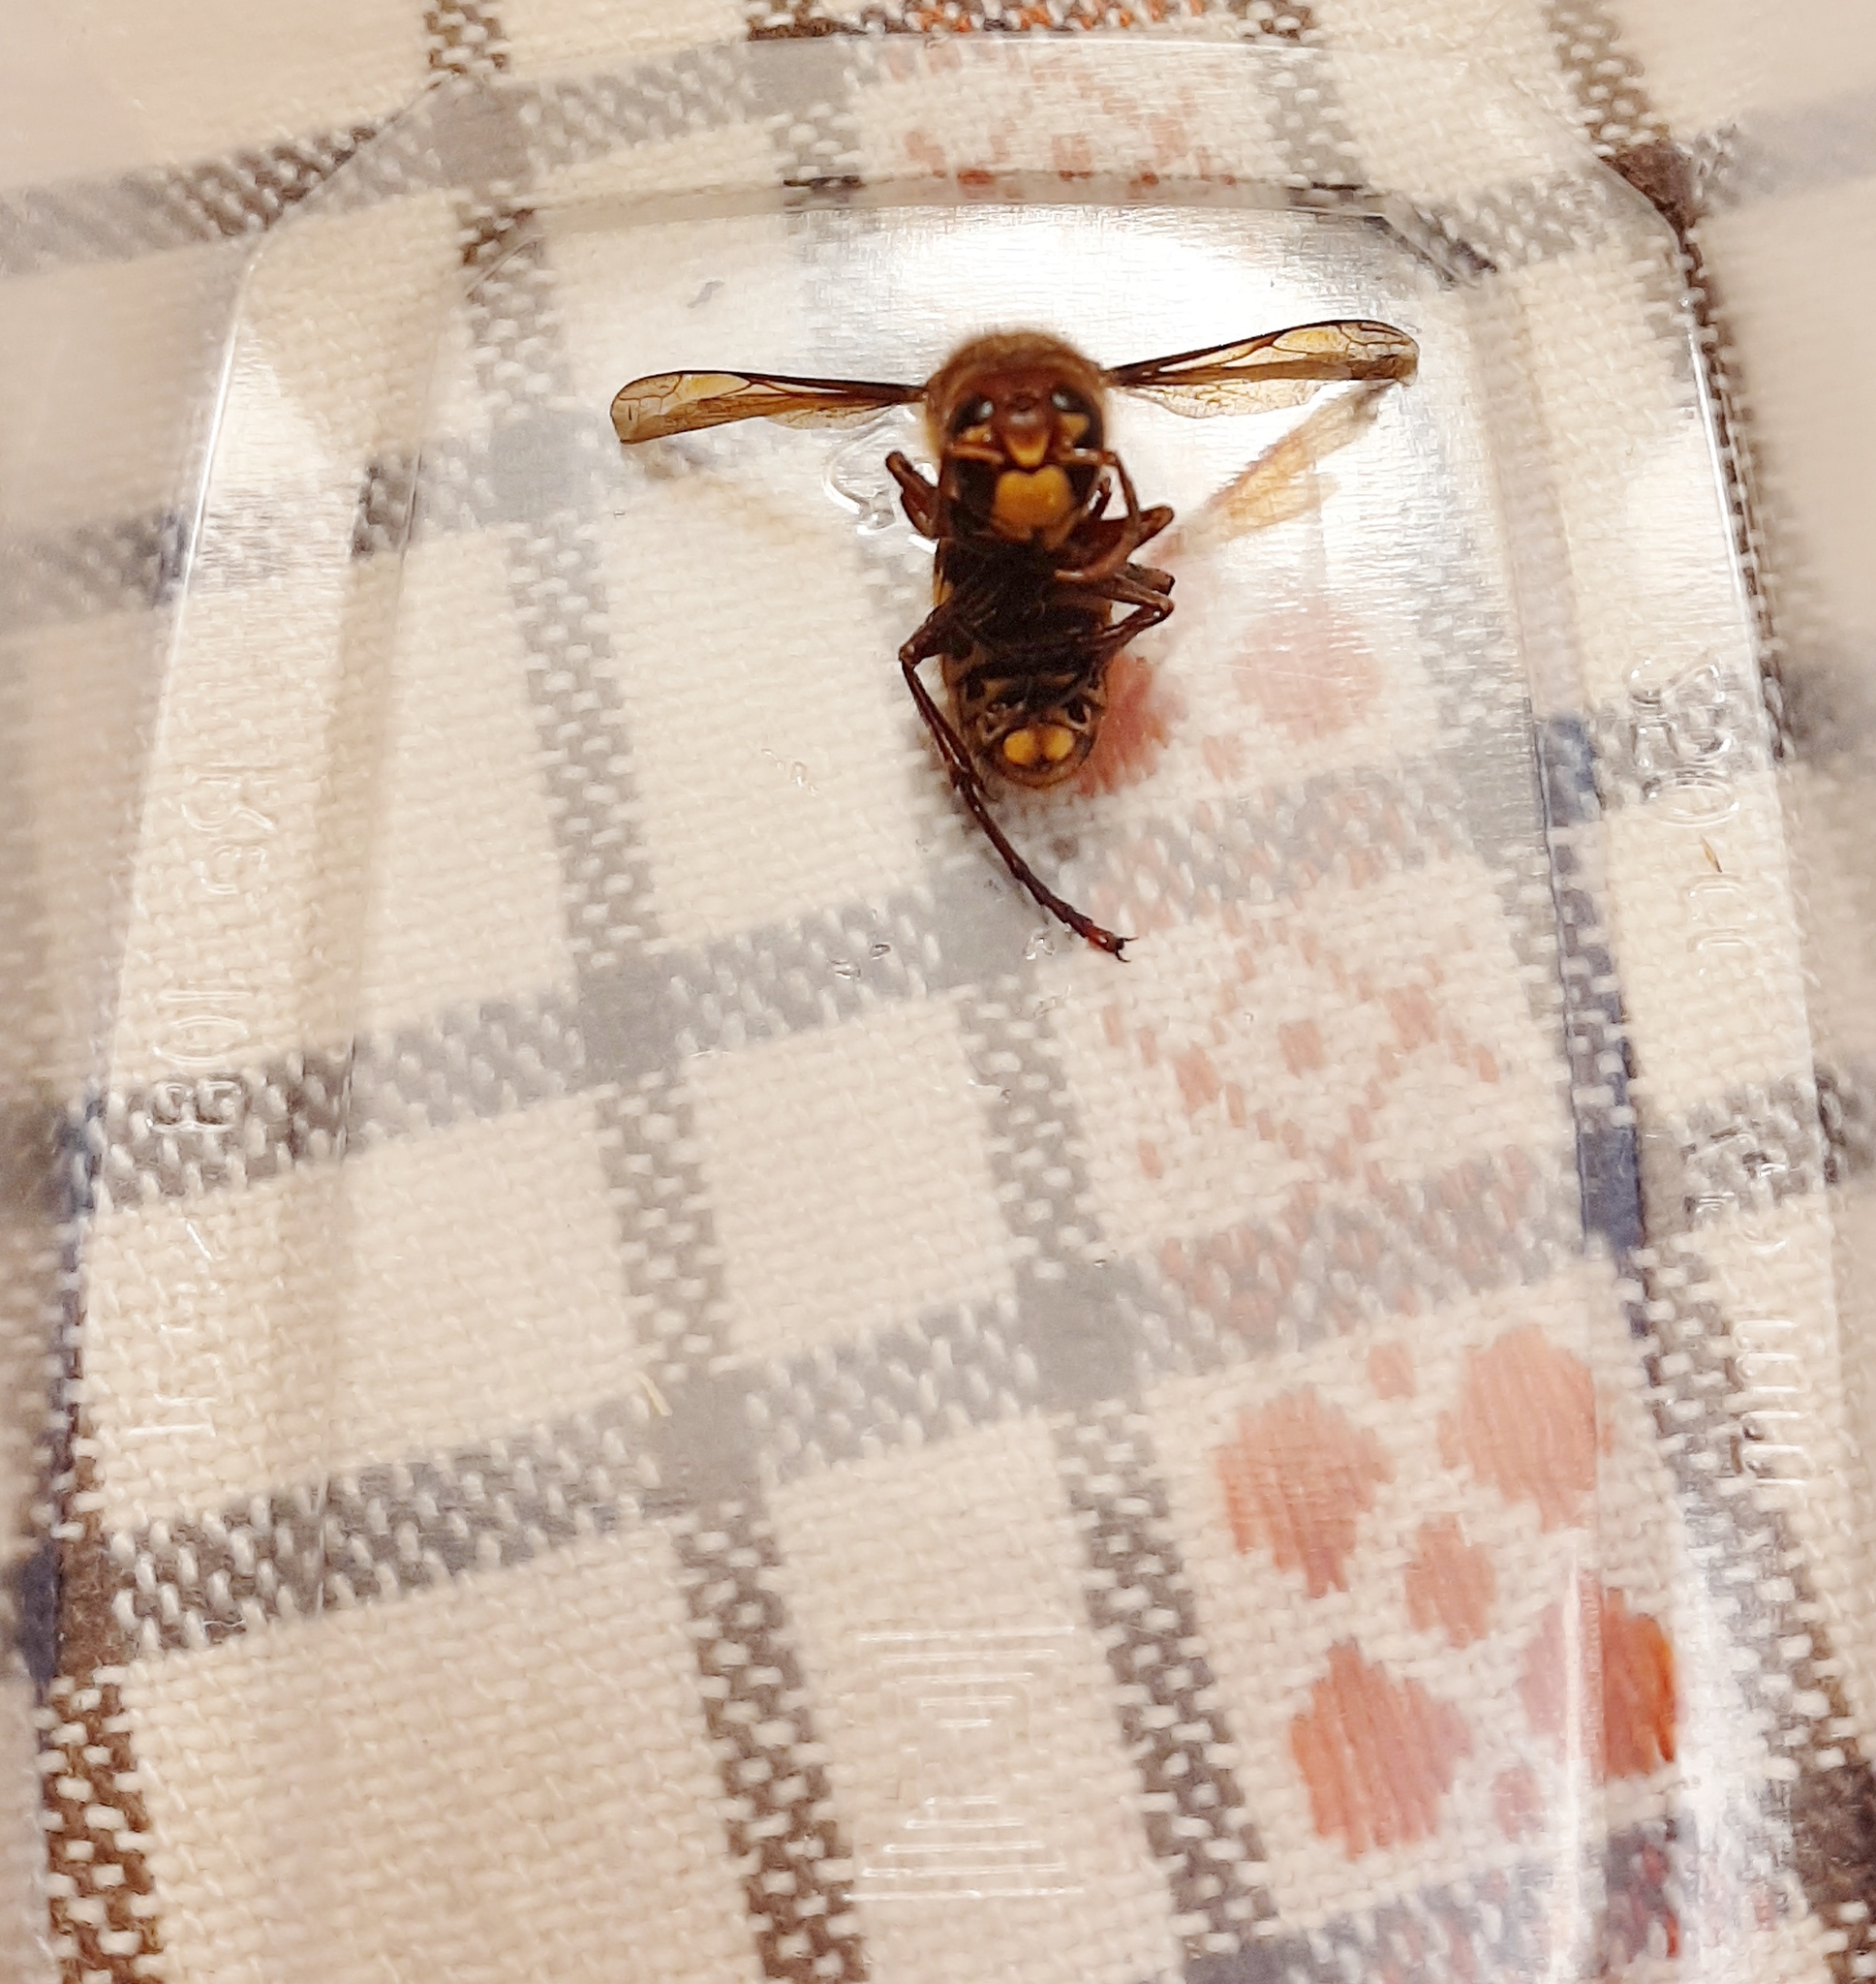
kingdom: Animalia
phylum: Arthropoda
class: Insecta
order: Hymenoptera
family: Vespidae
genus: Vespa
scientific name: Vespa crabro
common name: Hornet
